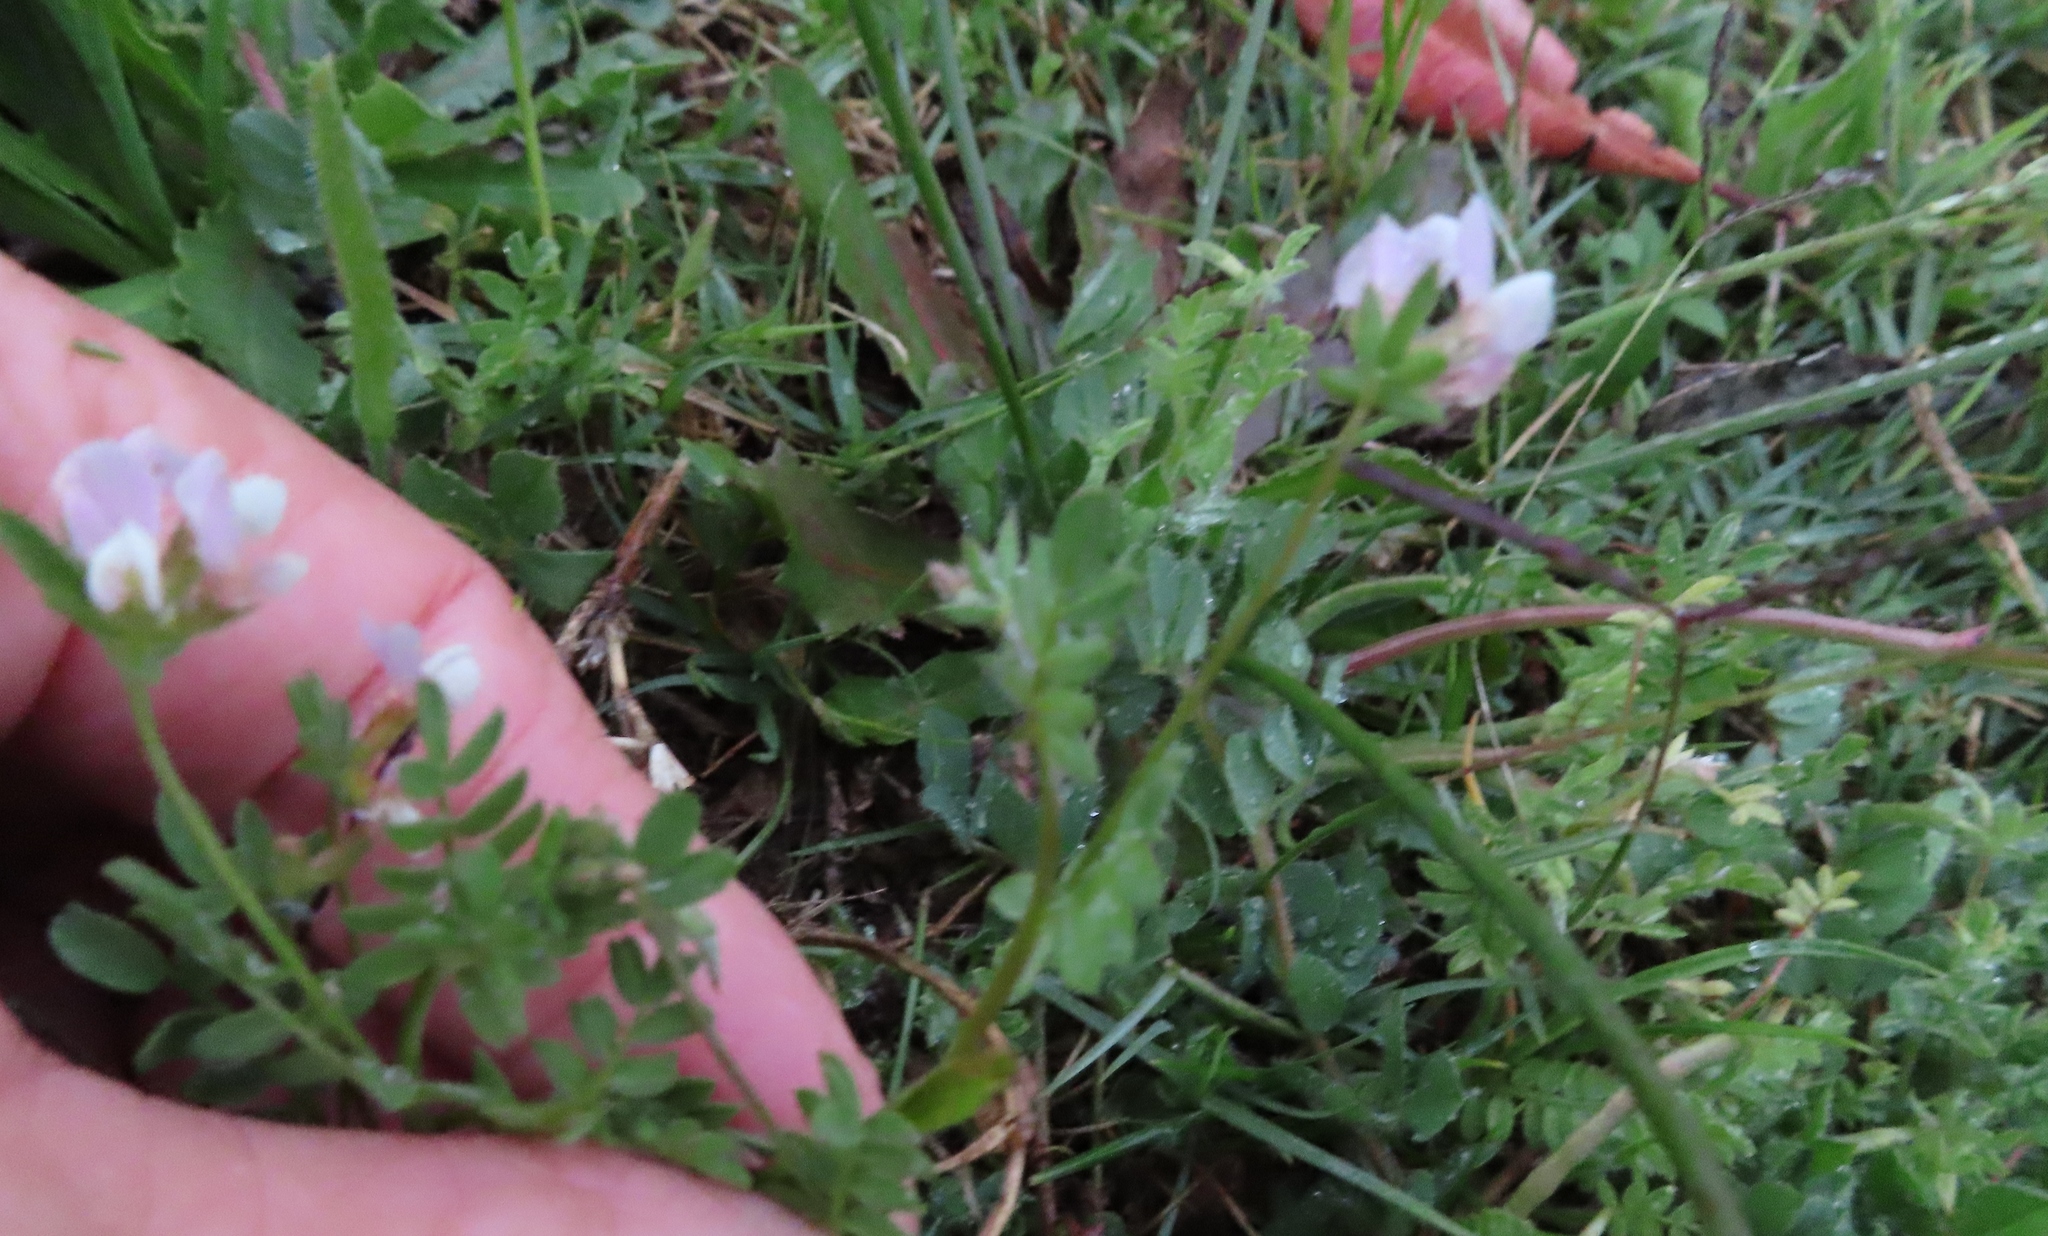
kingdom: Plantae
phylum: Tracheophyta
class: Magnoliopsida
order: Fabales
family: Fabaceae
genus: Ornithopus
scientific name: Ornithopus sativus
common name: Serradella
